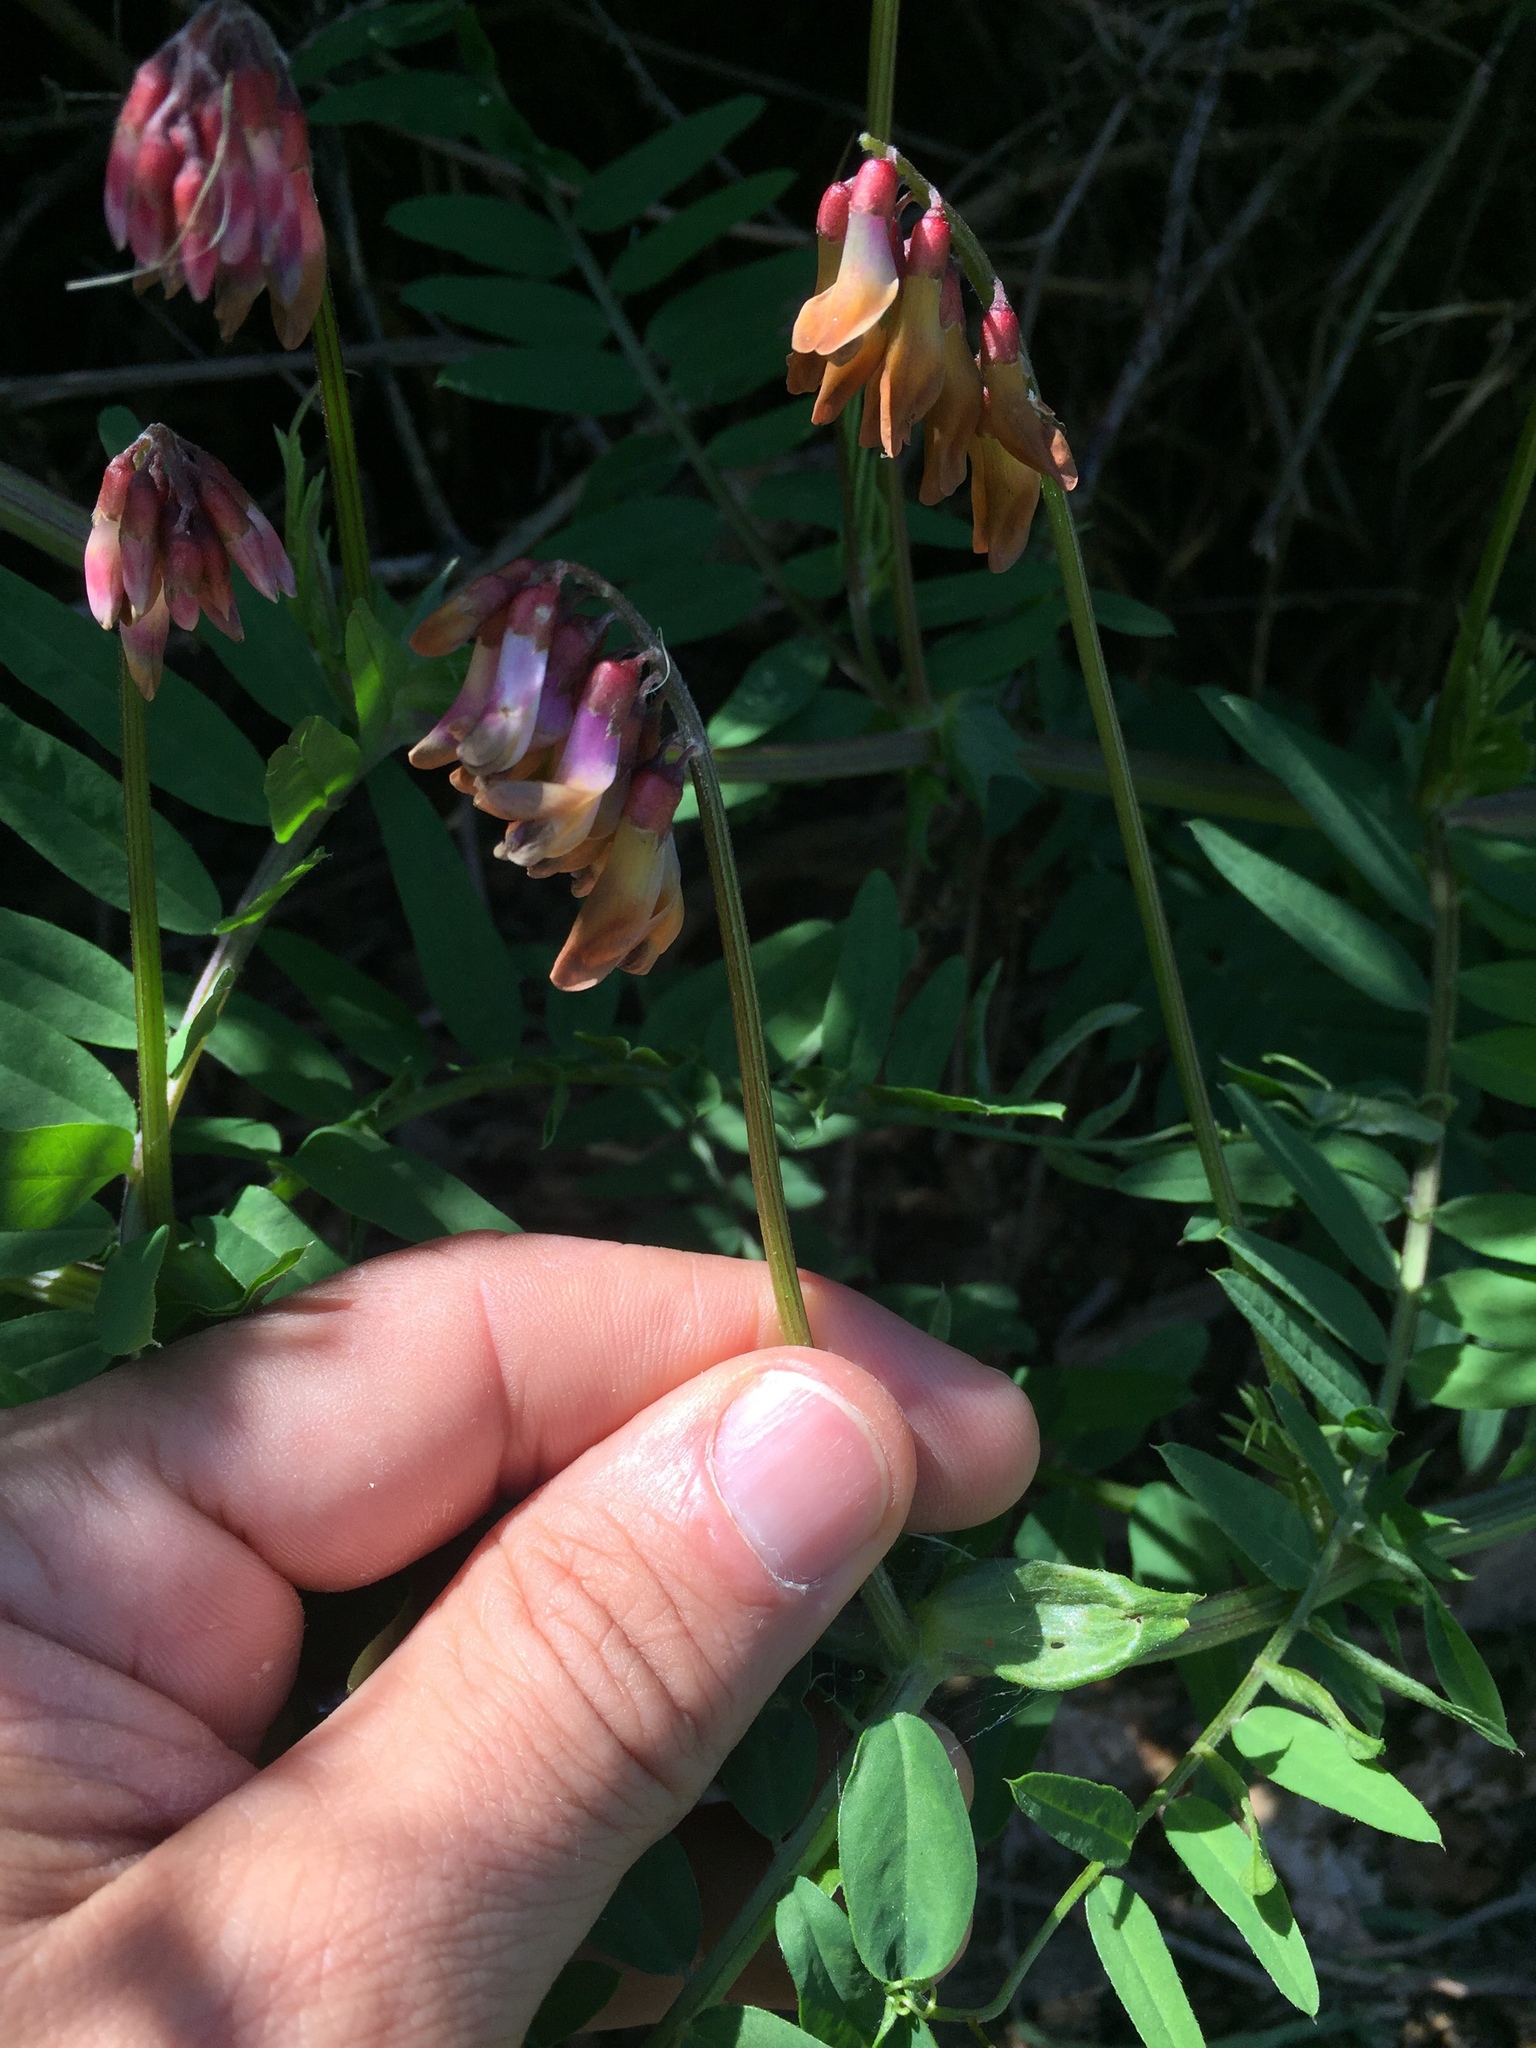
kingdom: Plantae
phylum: Tracheophyta
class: Magnoliopsida
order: Fabales
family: Fabaceae
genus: Vicia
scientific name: Vicia
